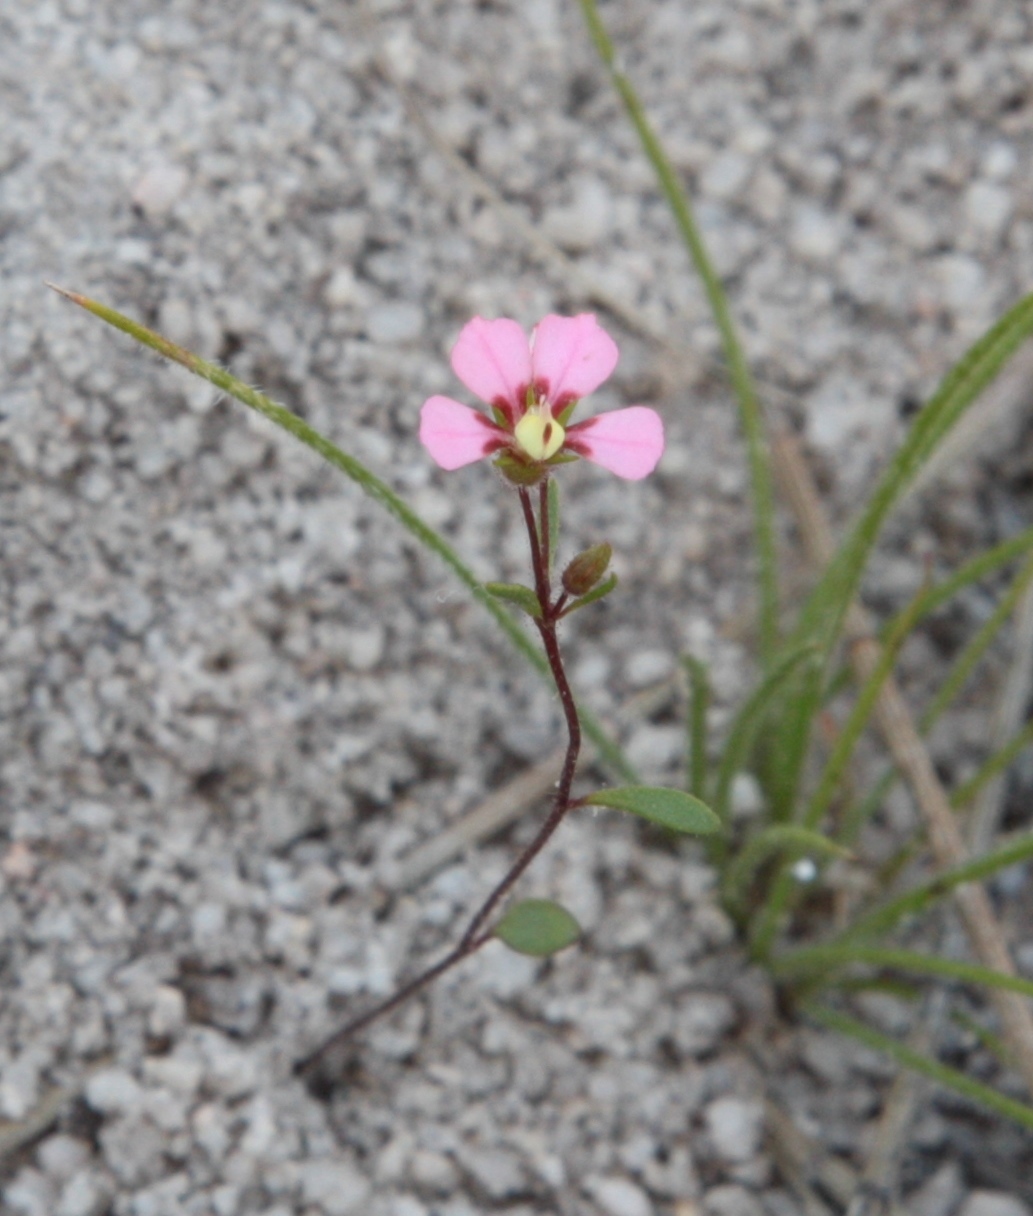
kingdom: Plantae
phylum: Tracheophyta
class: Magnoliopsida
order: Asterales
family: Stylidiaceae
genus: Levenhookia
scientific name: Levenhookia stipitata
